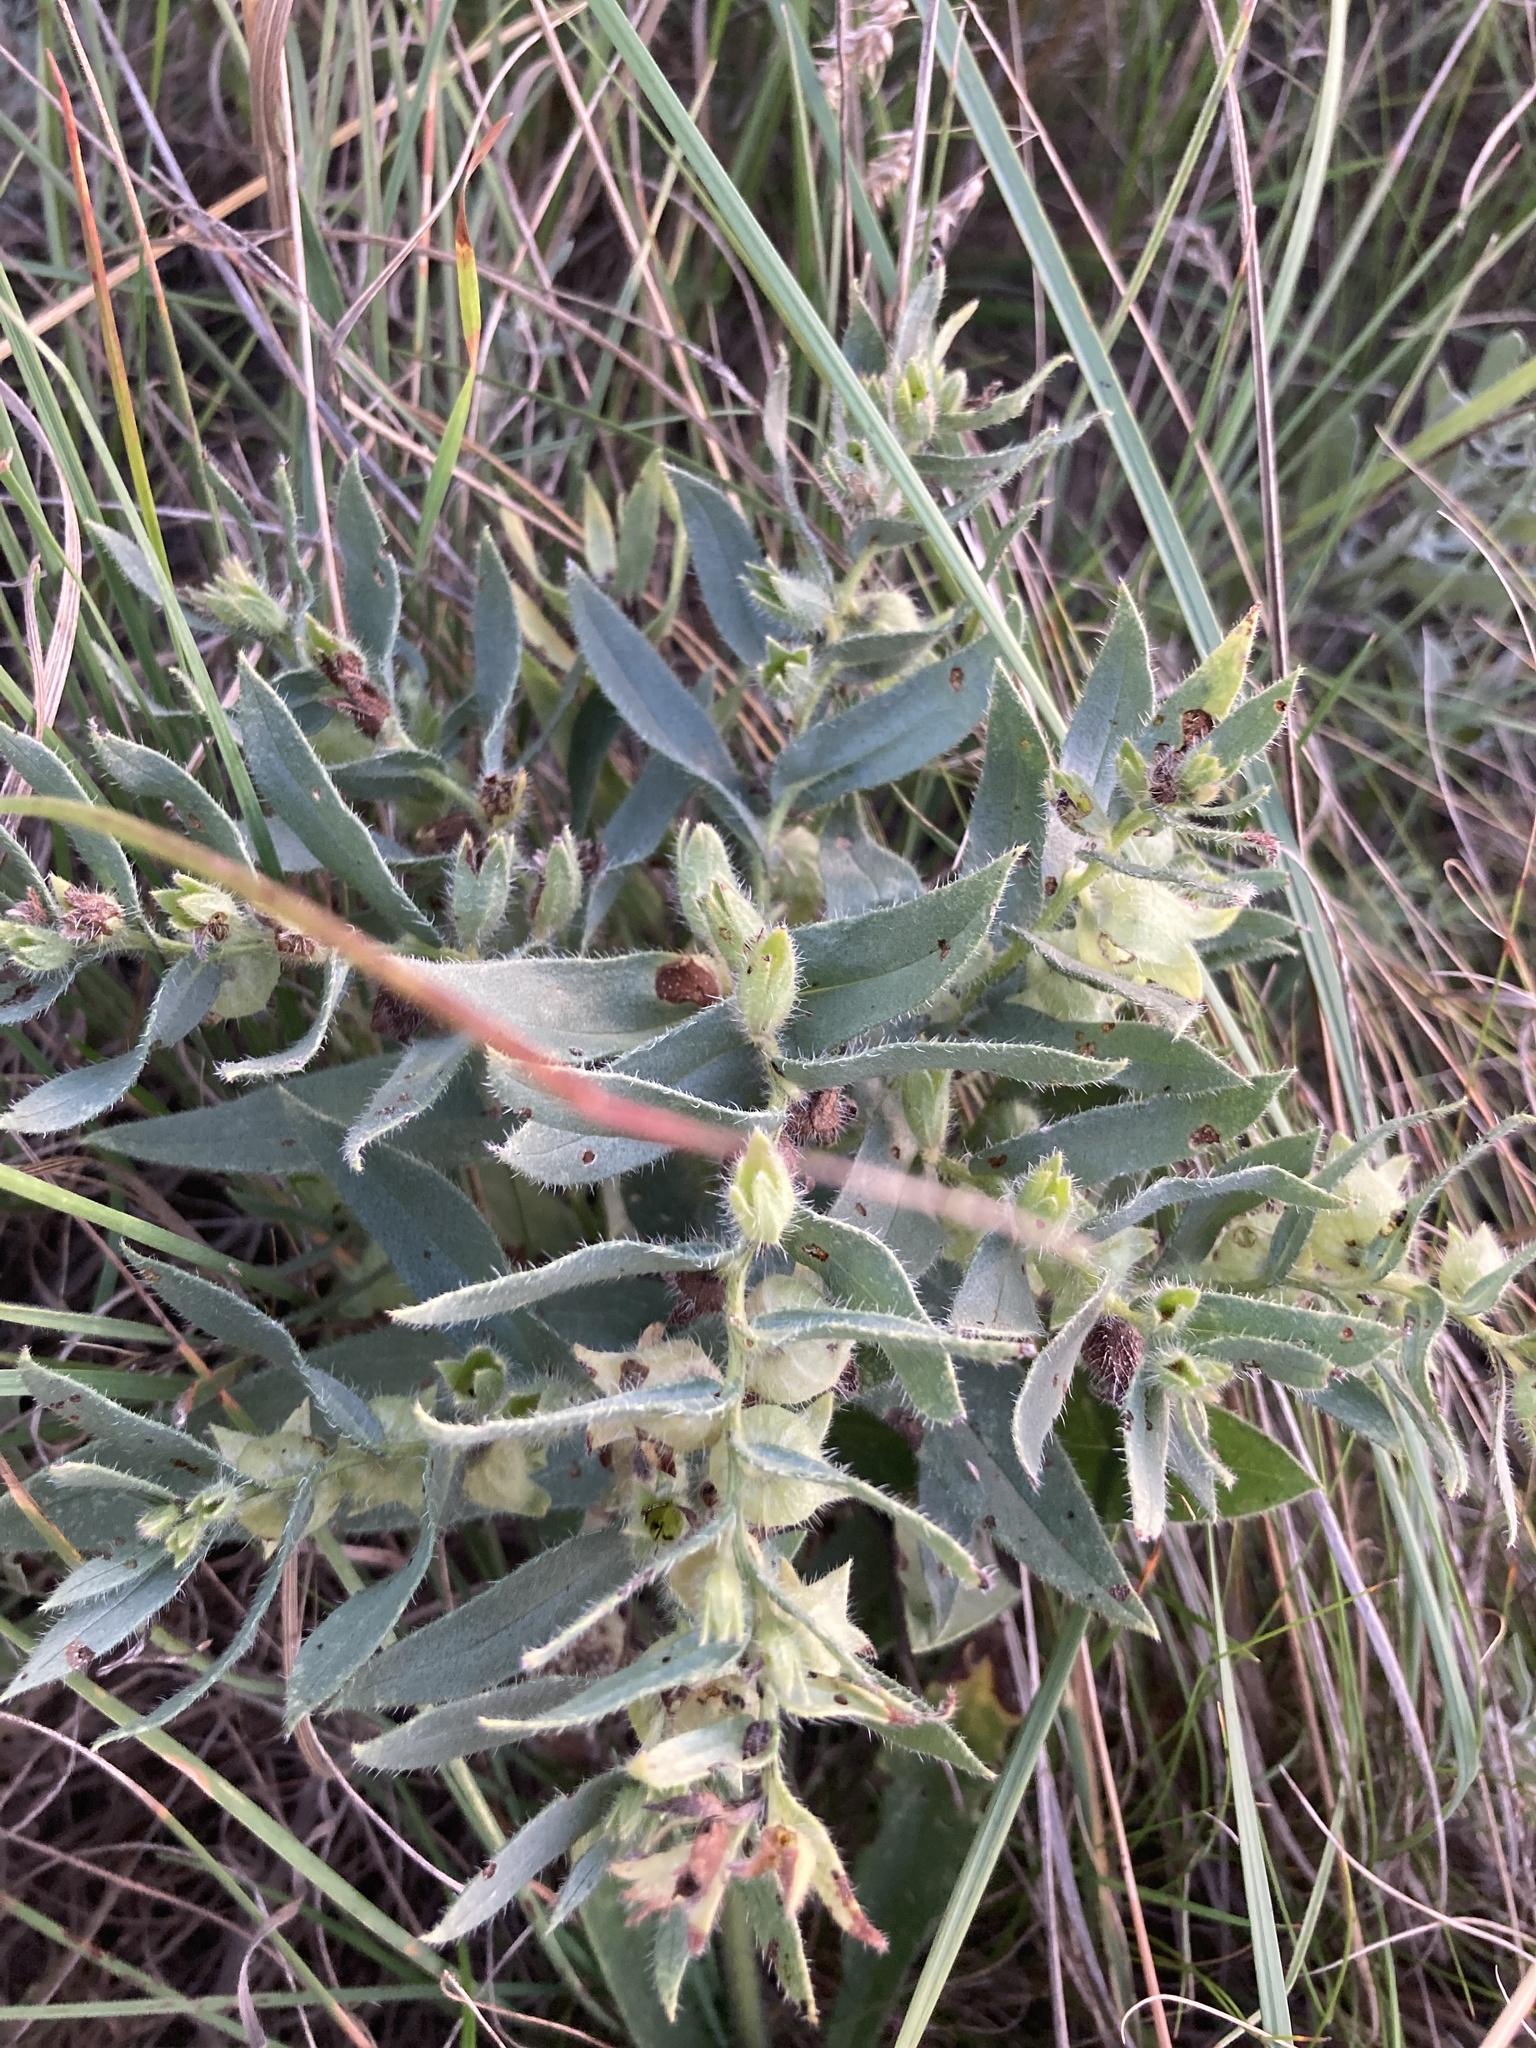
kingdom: Plantae
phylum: Tracheophyta
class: Magnoliopsida
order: Boraginales
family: Boraginaceae
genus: Nonea
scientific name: Nonea pulla
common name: Brown nonea
